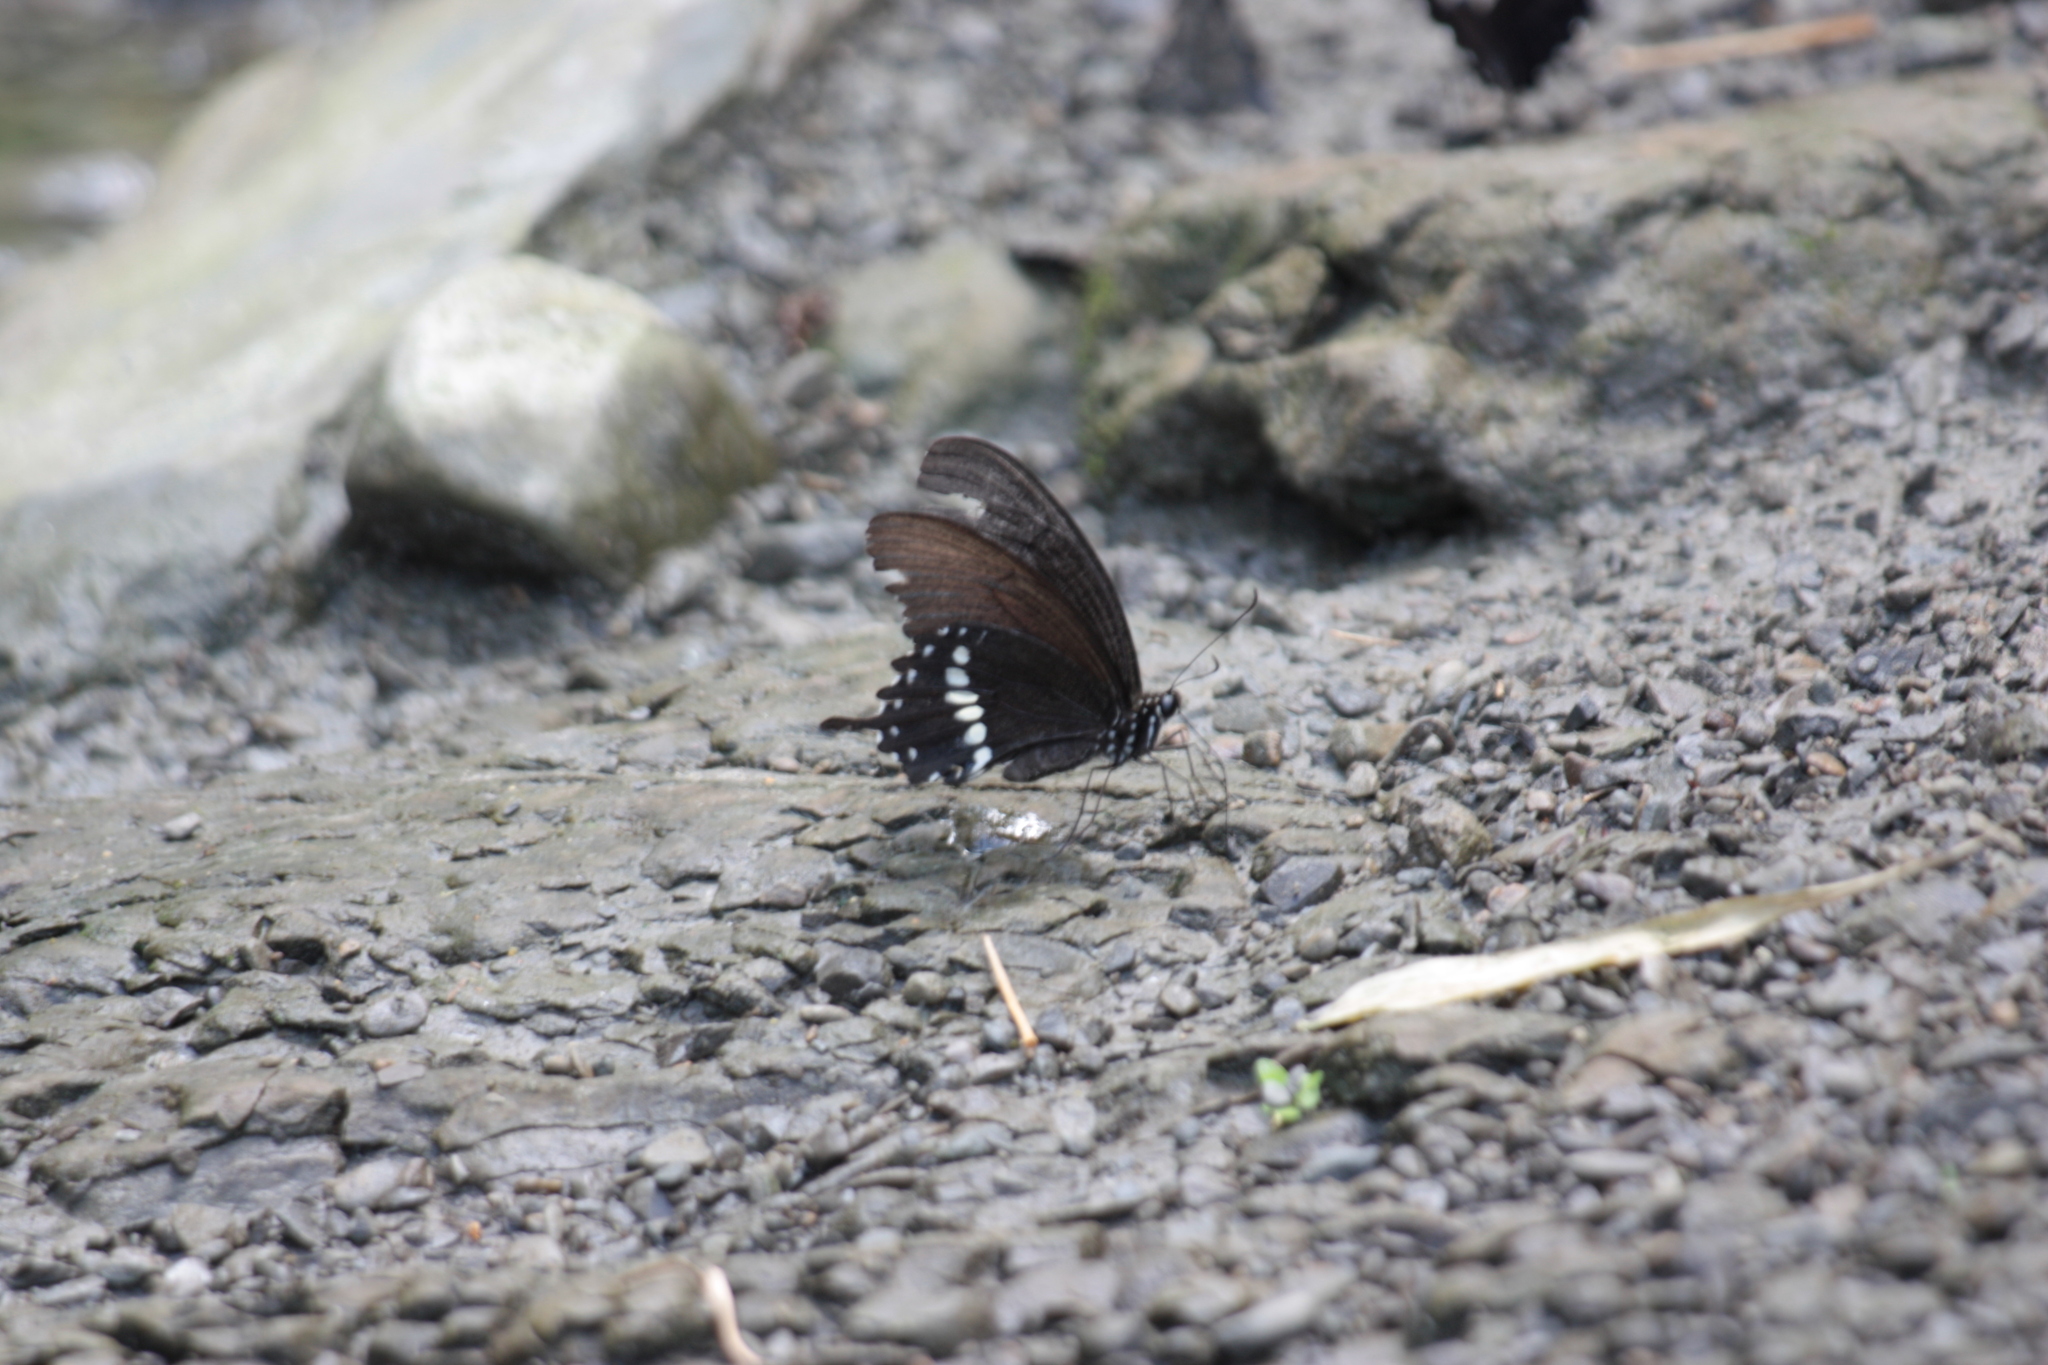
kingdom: Animalia
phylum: Arthropoda
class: Insecta
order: Lepidoptera
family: Papilionidae
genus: Papilio
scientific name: Papilio polytes
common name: Common mormon
